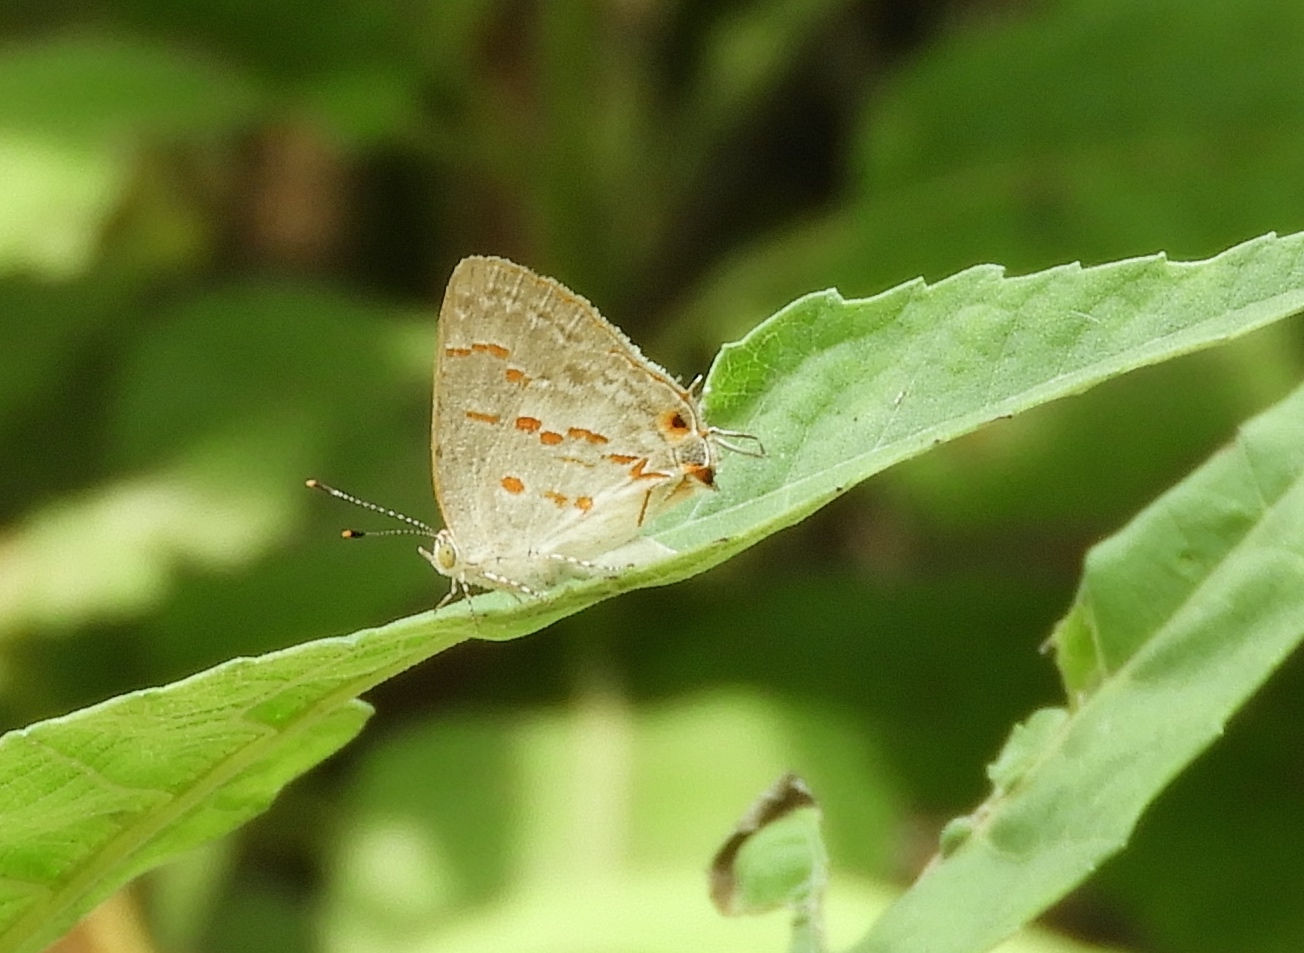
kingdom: Animalia
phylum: Arthropoda
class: Insecta
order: Lepidoptera
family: Lycaenidae
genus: Ministrymon
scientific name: Ministrymon clytie
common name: Clytie ministreak
